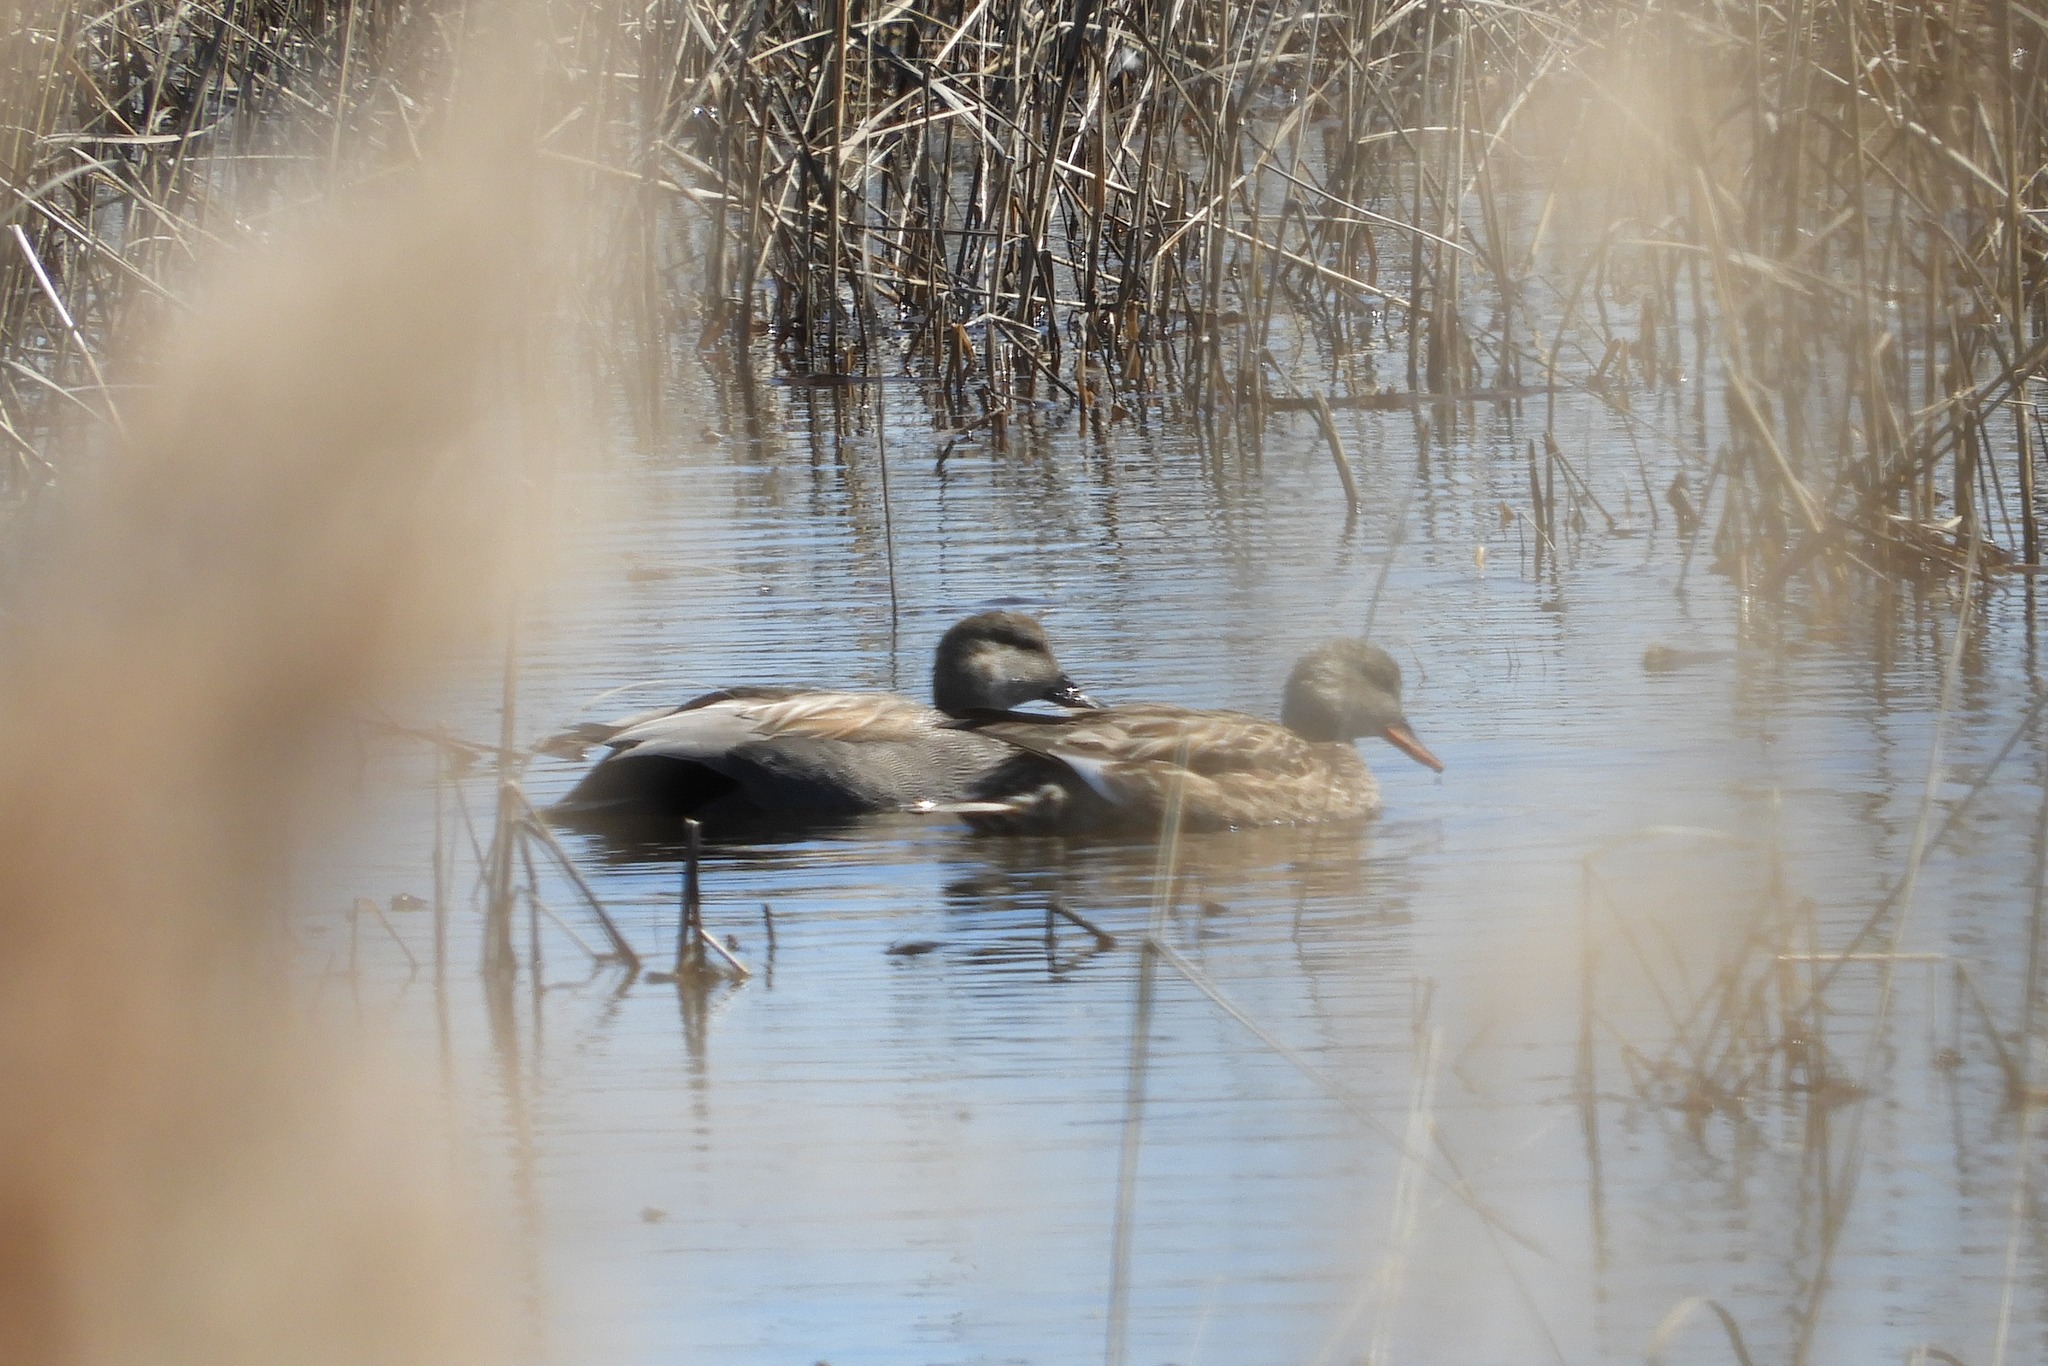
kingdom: Animalia
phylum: Chordata
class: Aves
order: Anseriformes
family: Anatidae
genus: Mareca
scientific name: Mareca strepera
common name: Gadwall
